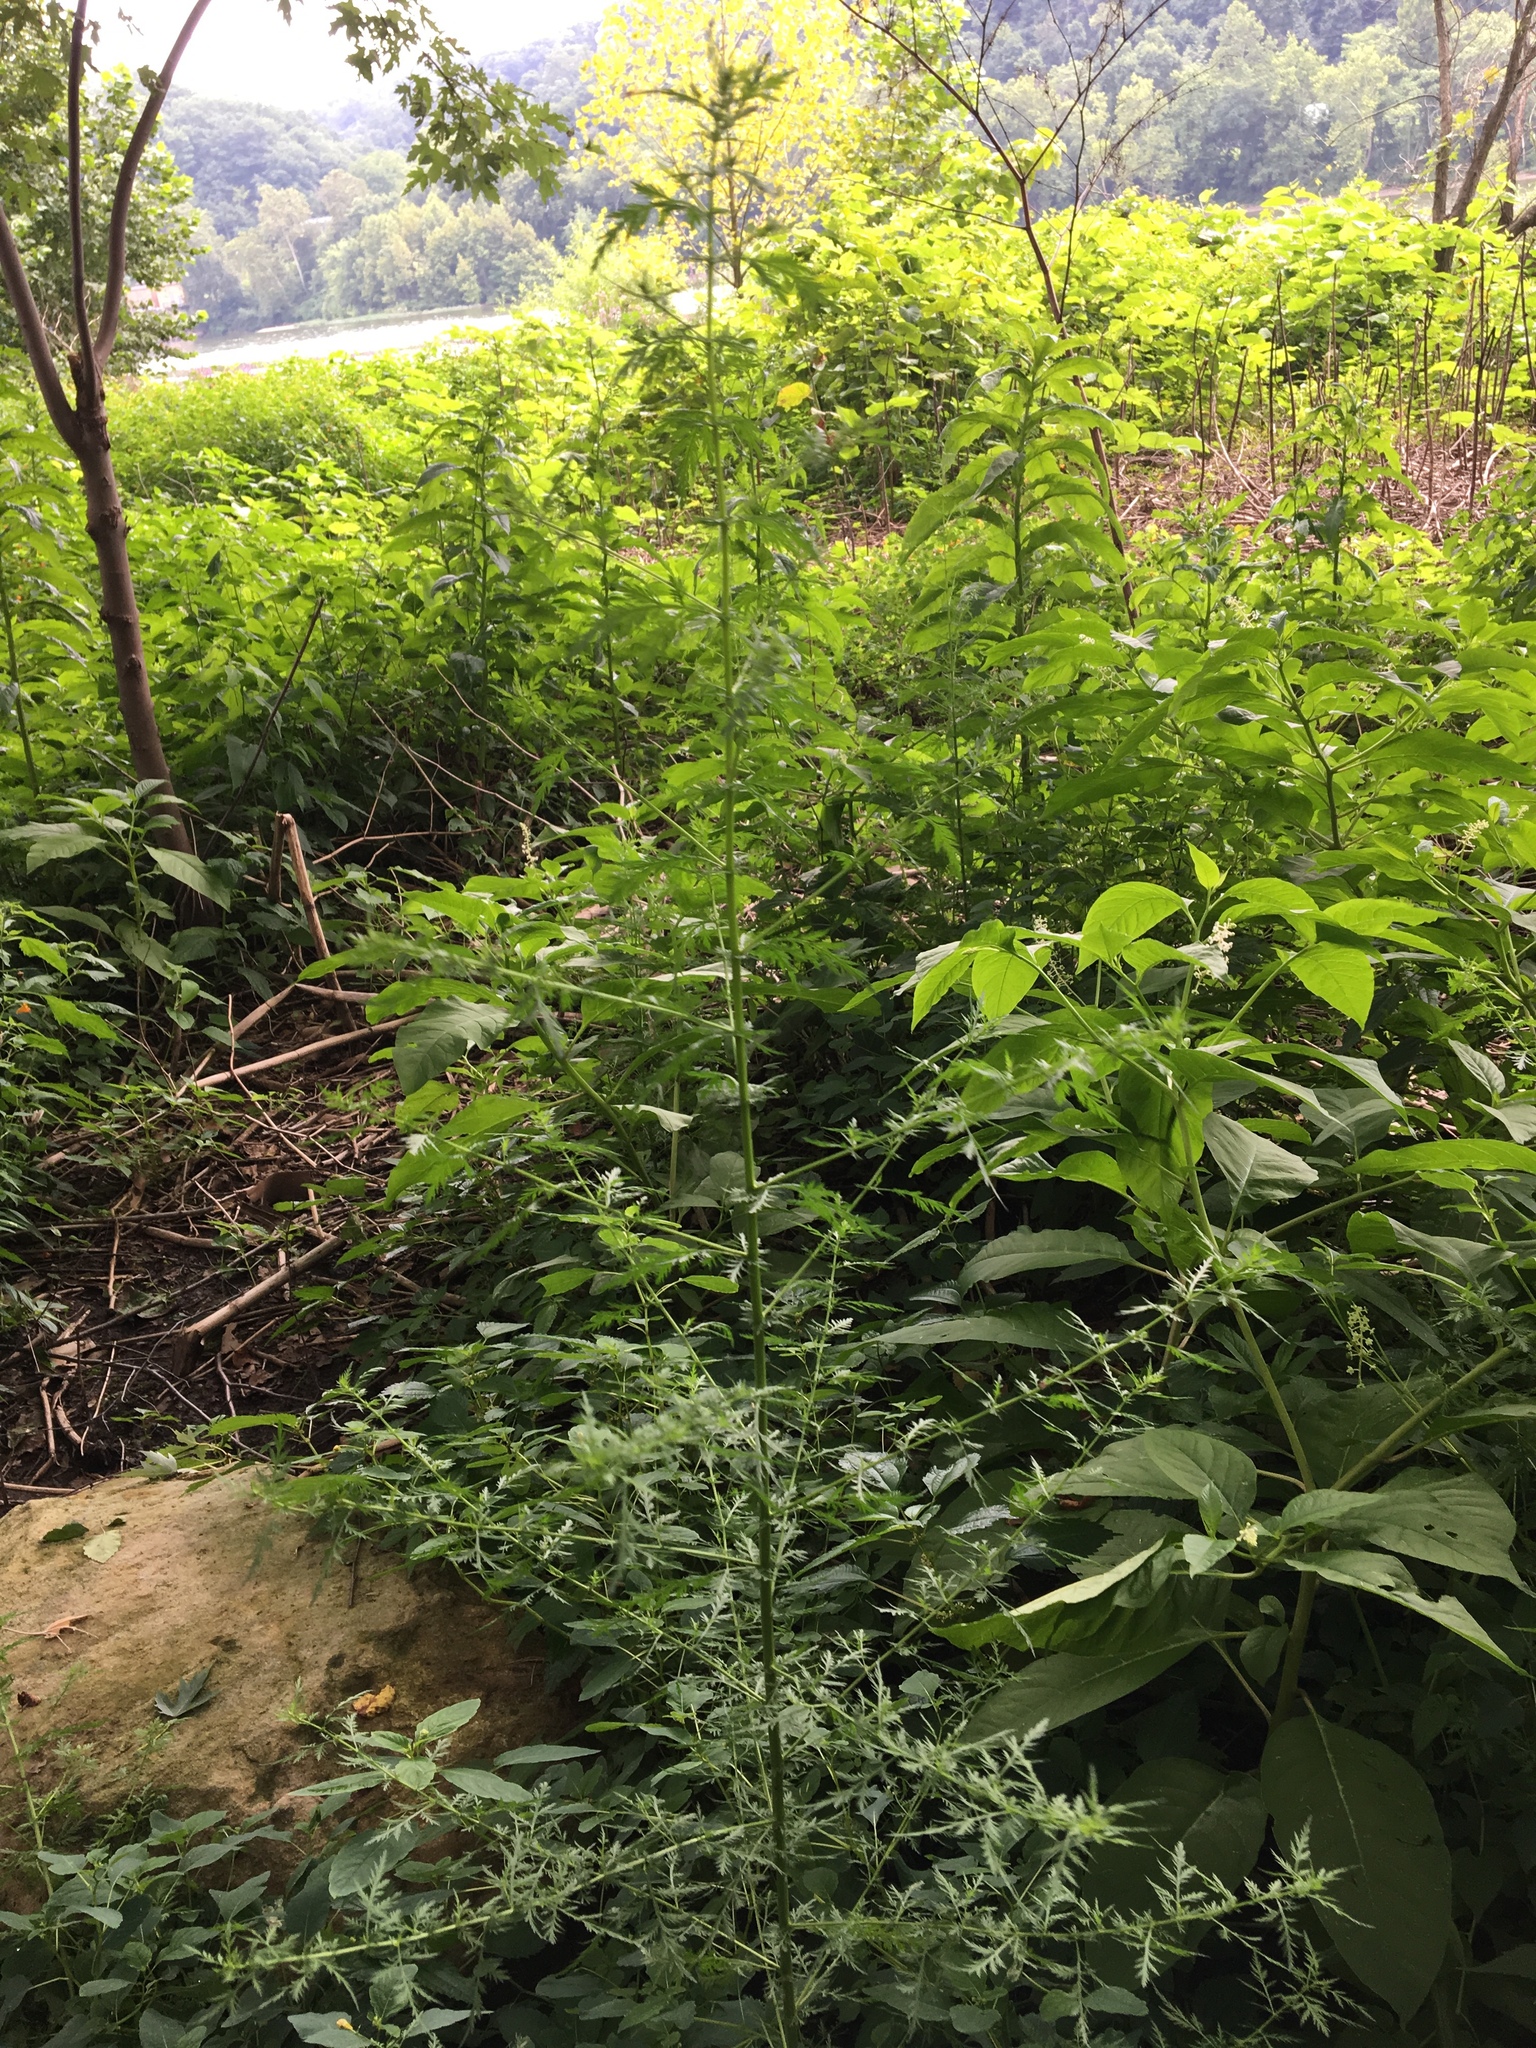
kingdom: Plantae
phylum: Tracheophyta
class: Magnoliopsida
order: Asterales
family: Asteraceae
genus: Artemisia
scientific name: Artemisia annua
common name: Sweet sagewort
